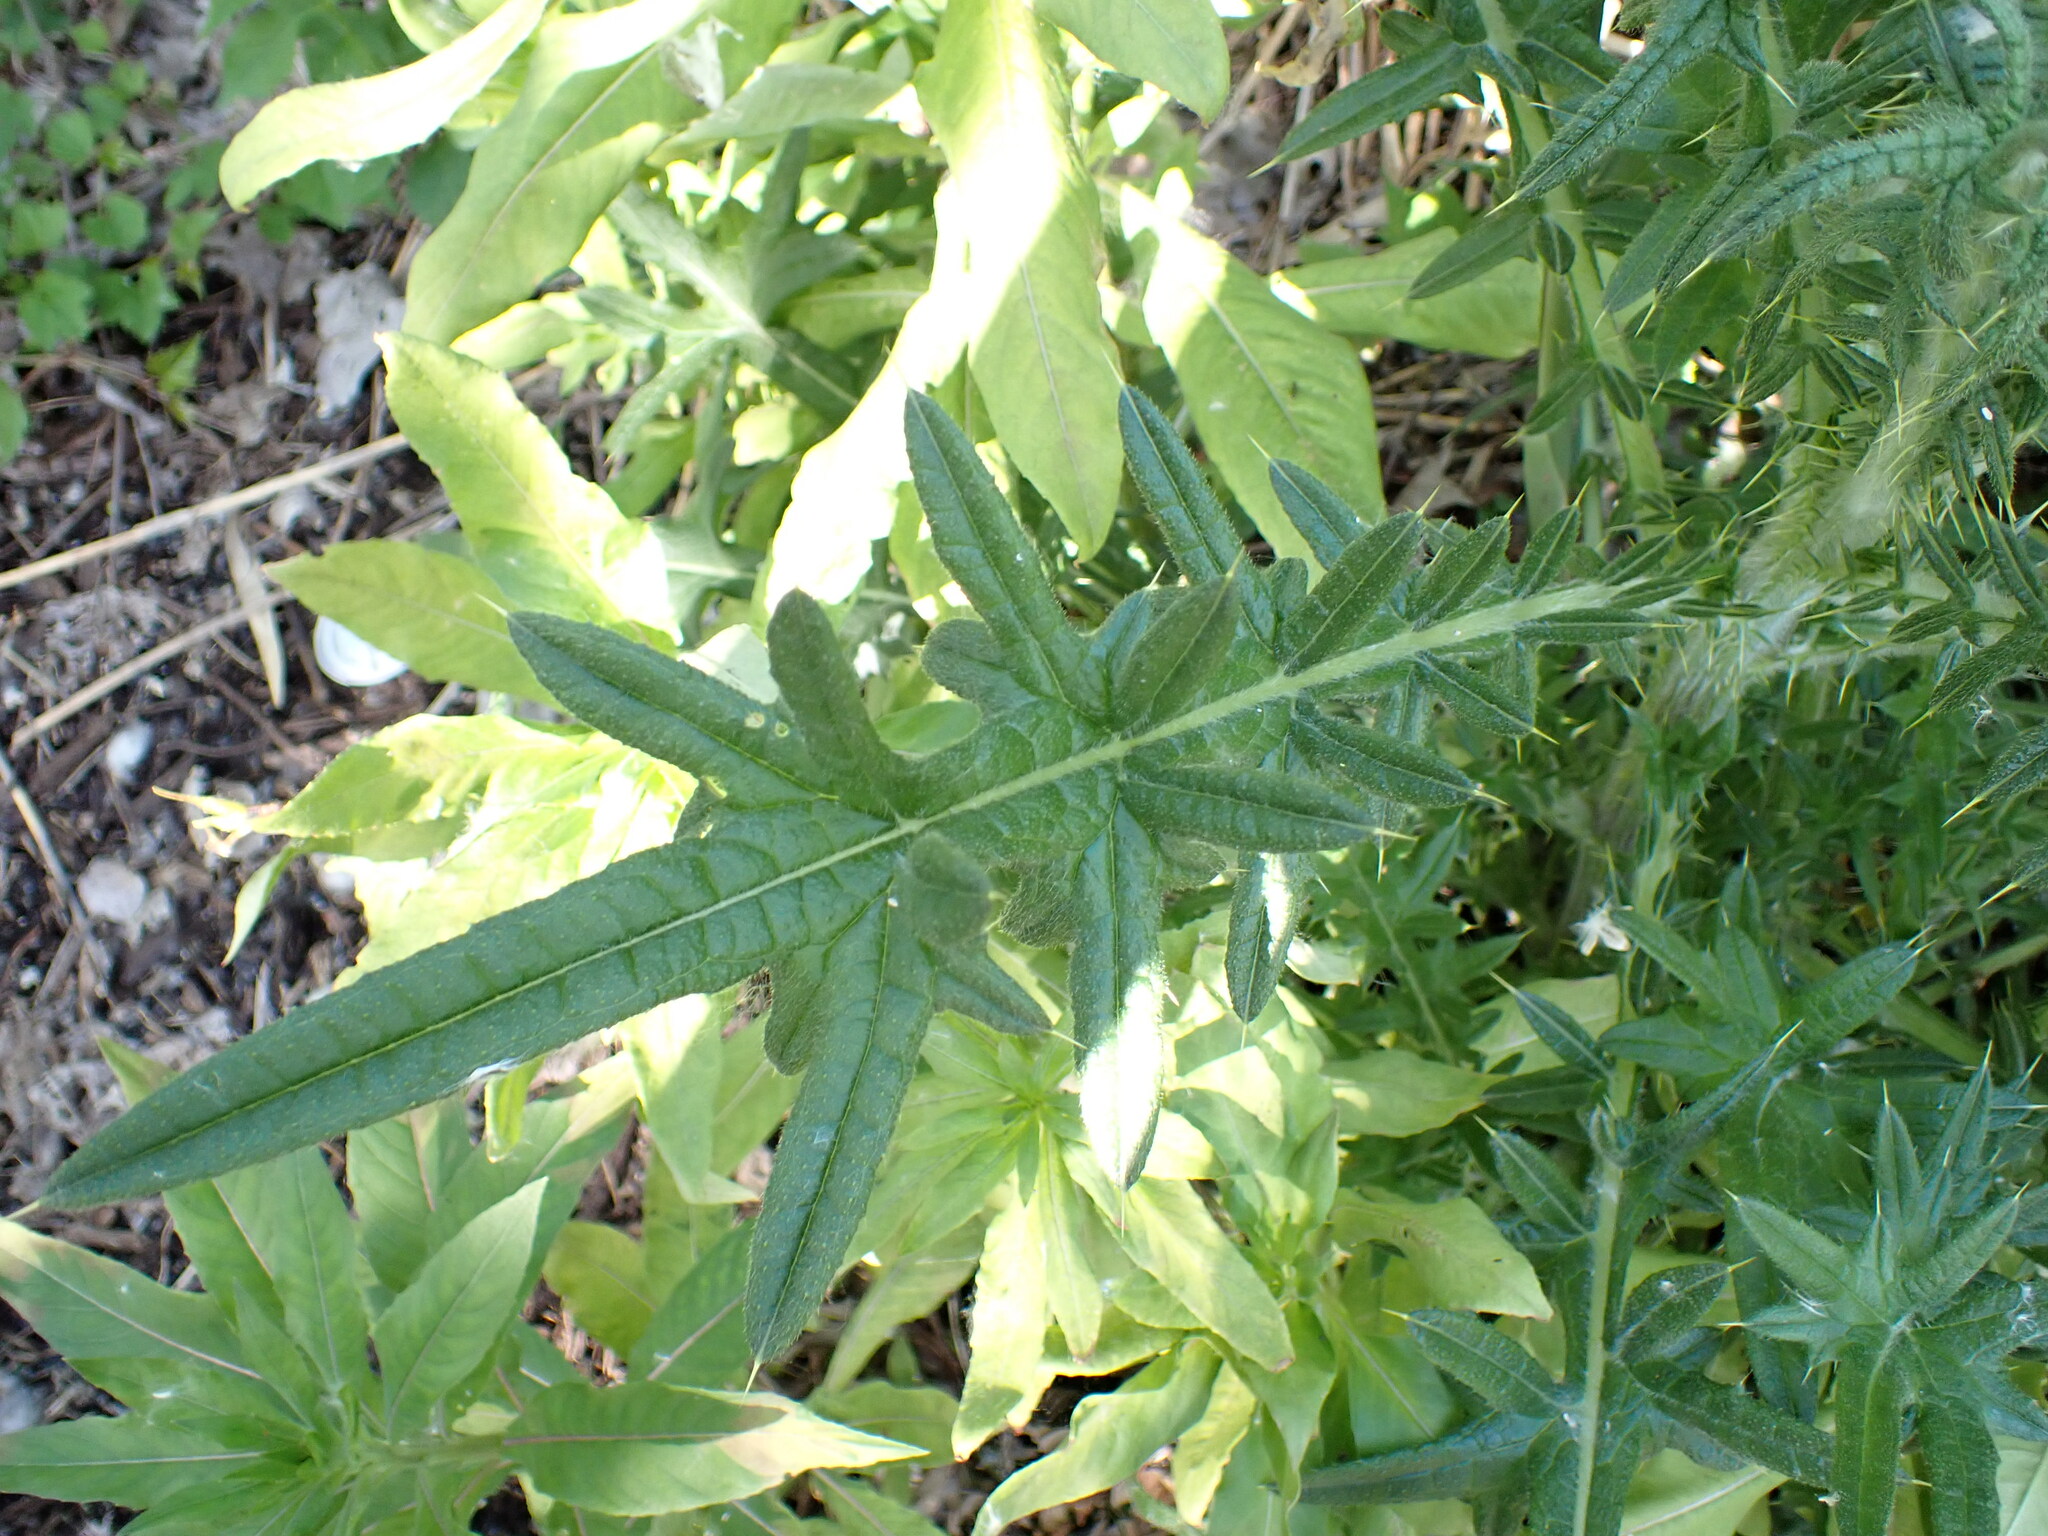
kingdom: Plantae
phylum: Tracheophyta
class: Magnoliopsida
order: Asterales
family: Asteraceae
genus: Cirsium
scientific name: Cirsium vulgare
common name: Bull thistle
